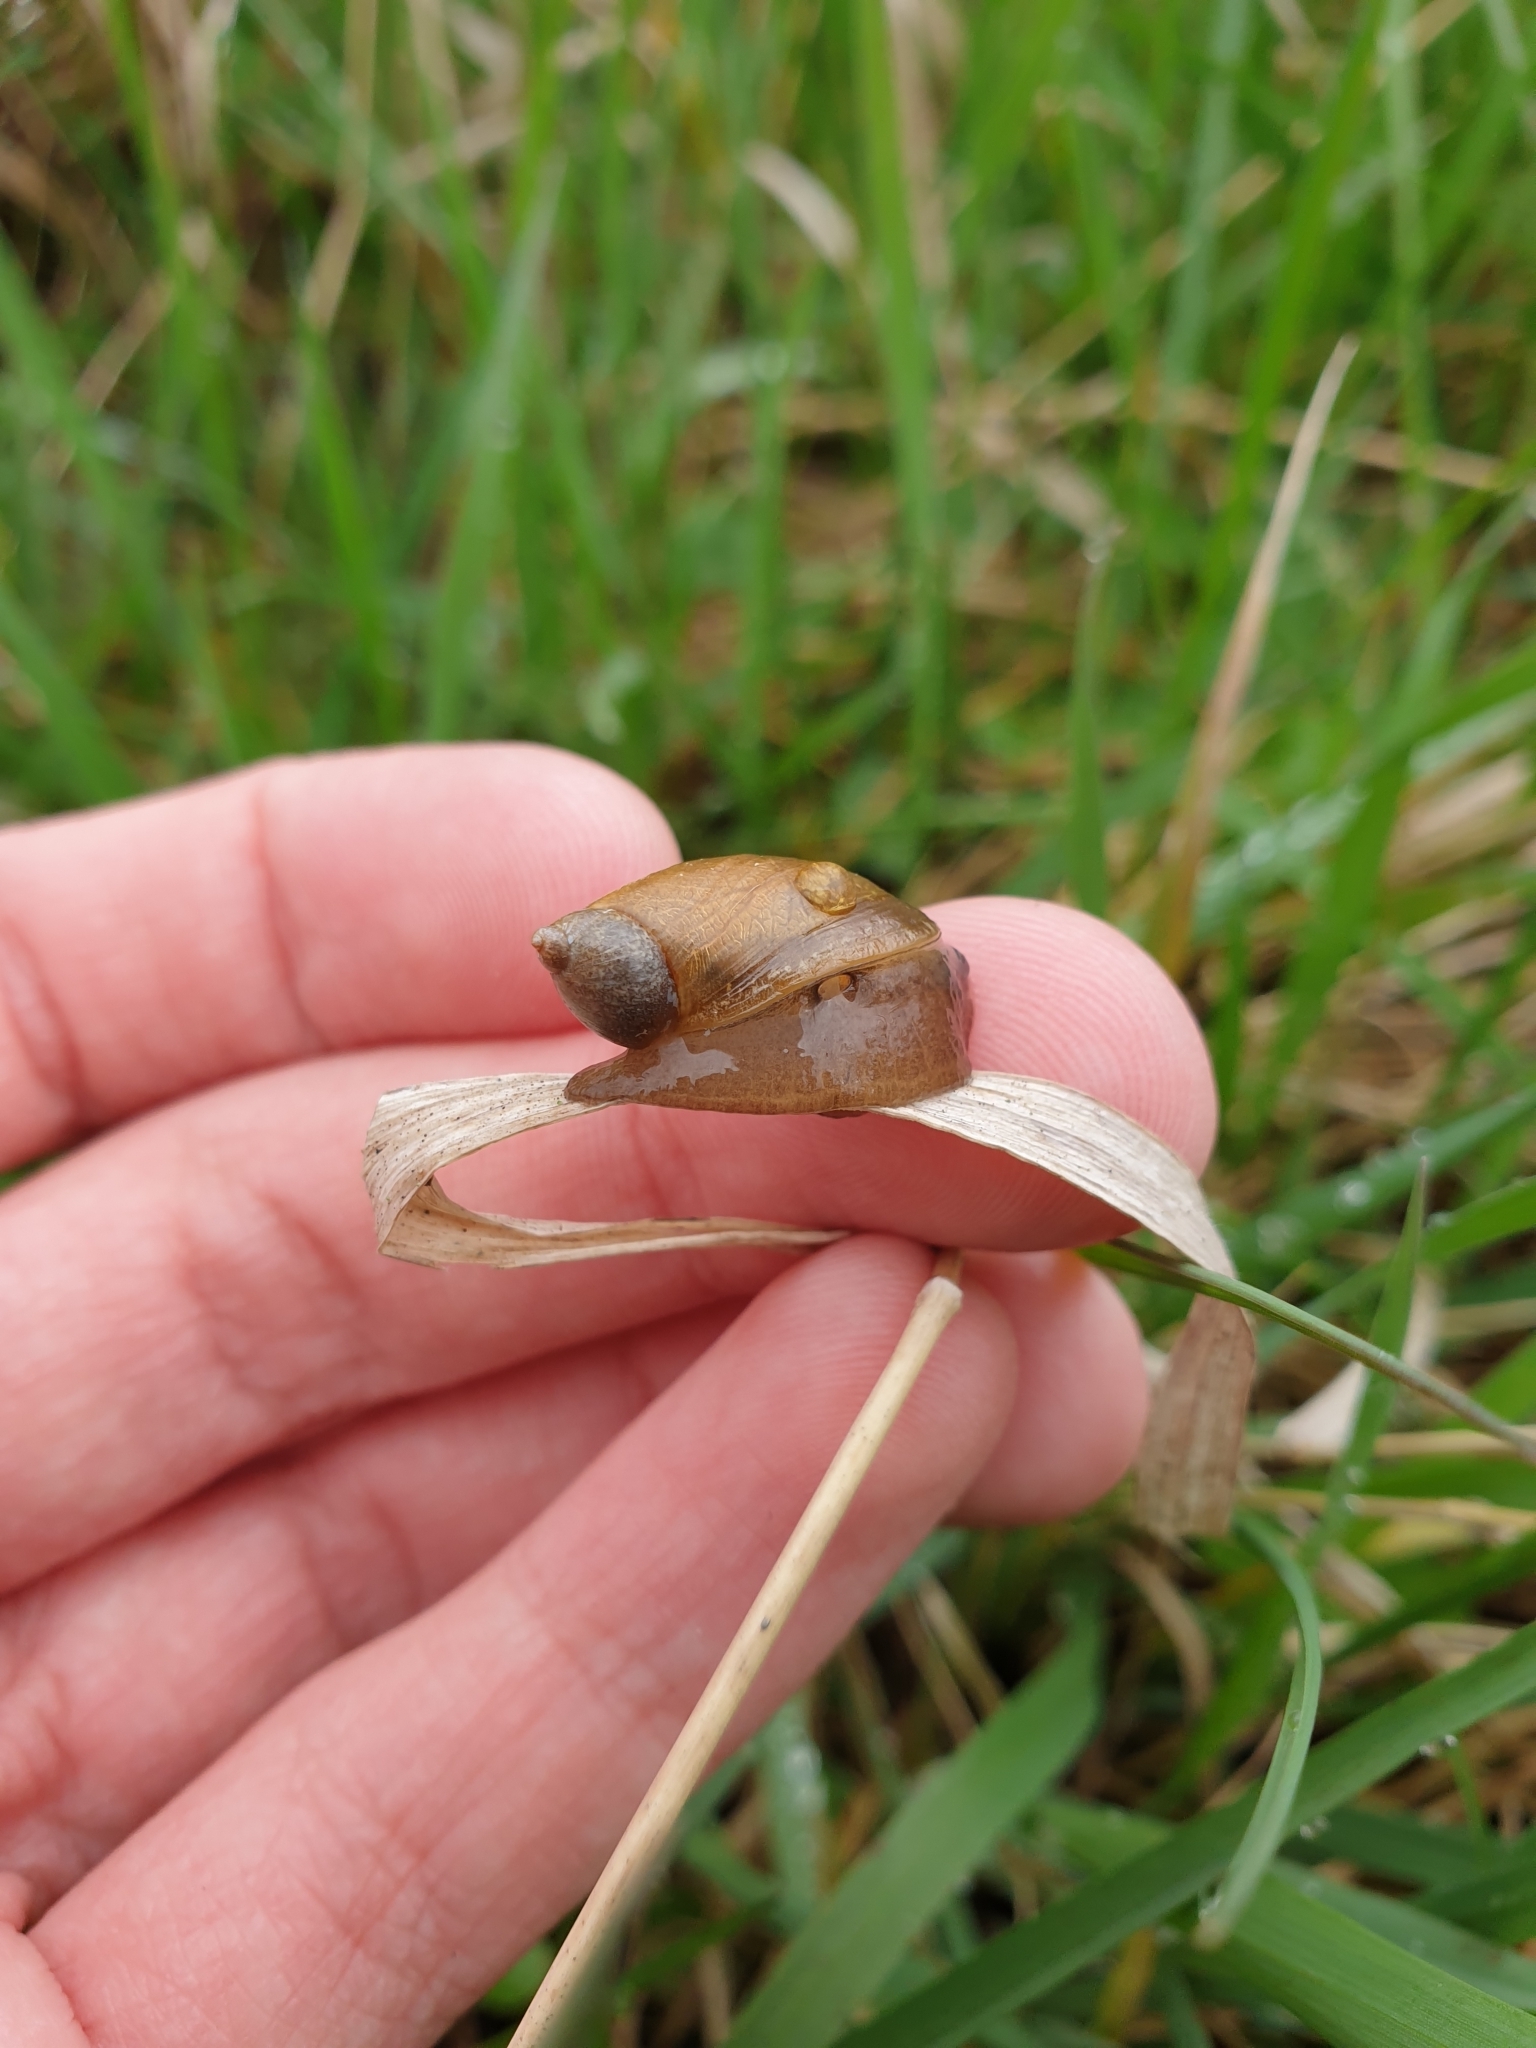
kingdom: Animalia
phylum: Mollusca
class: Gastropoda
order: Stylommatophora
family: Succineidae
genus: Succinea
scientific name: Succinea putris
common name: European ambersnail
